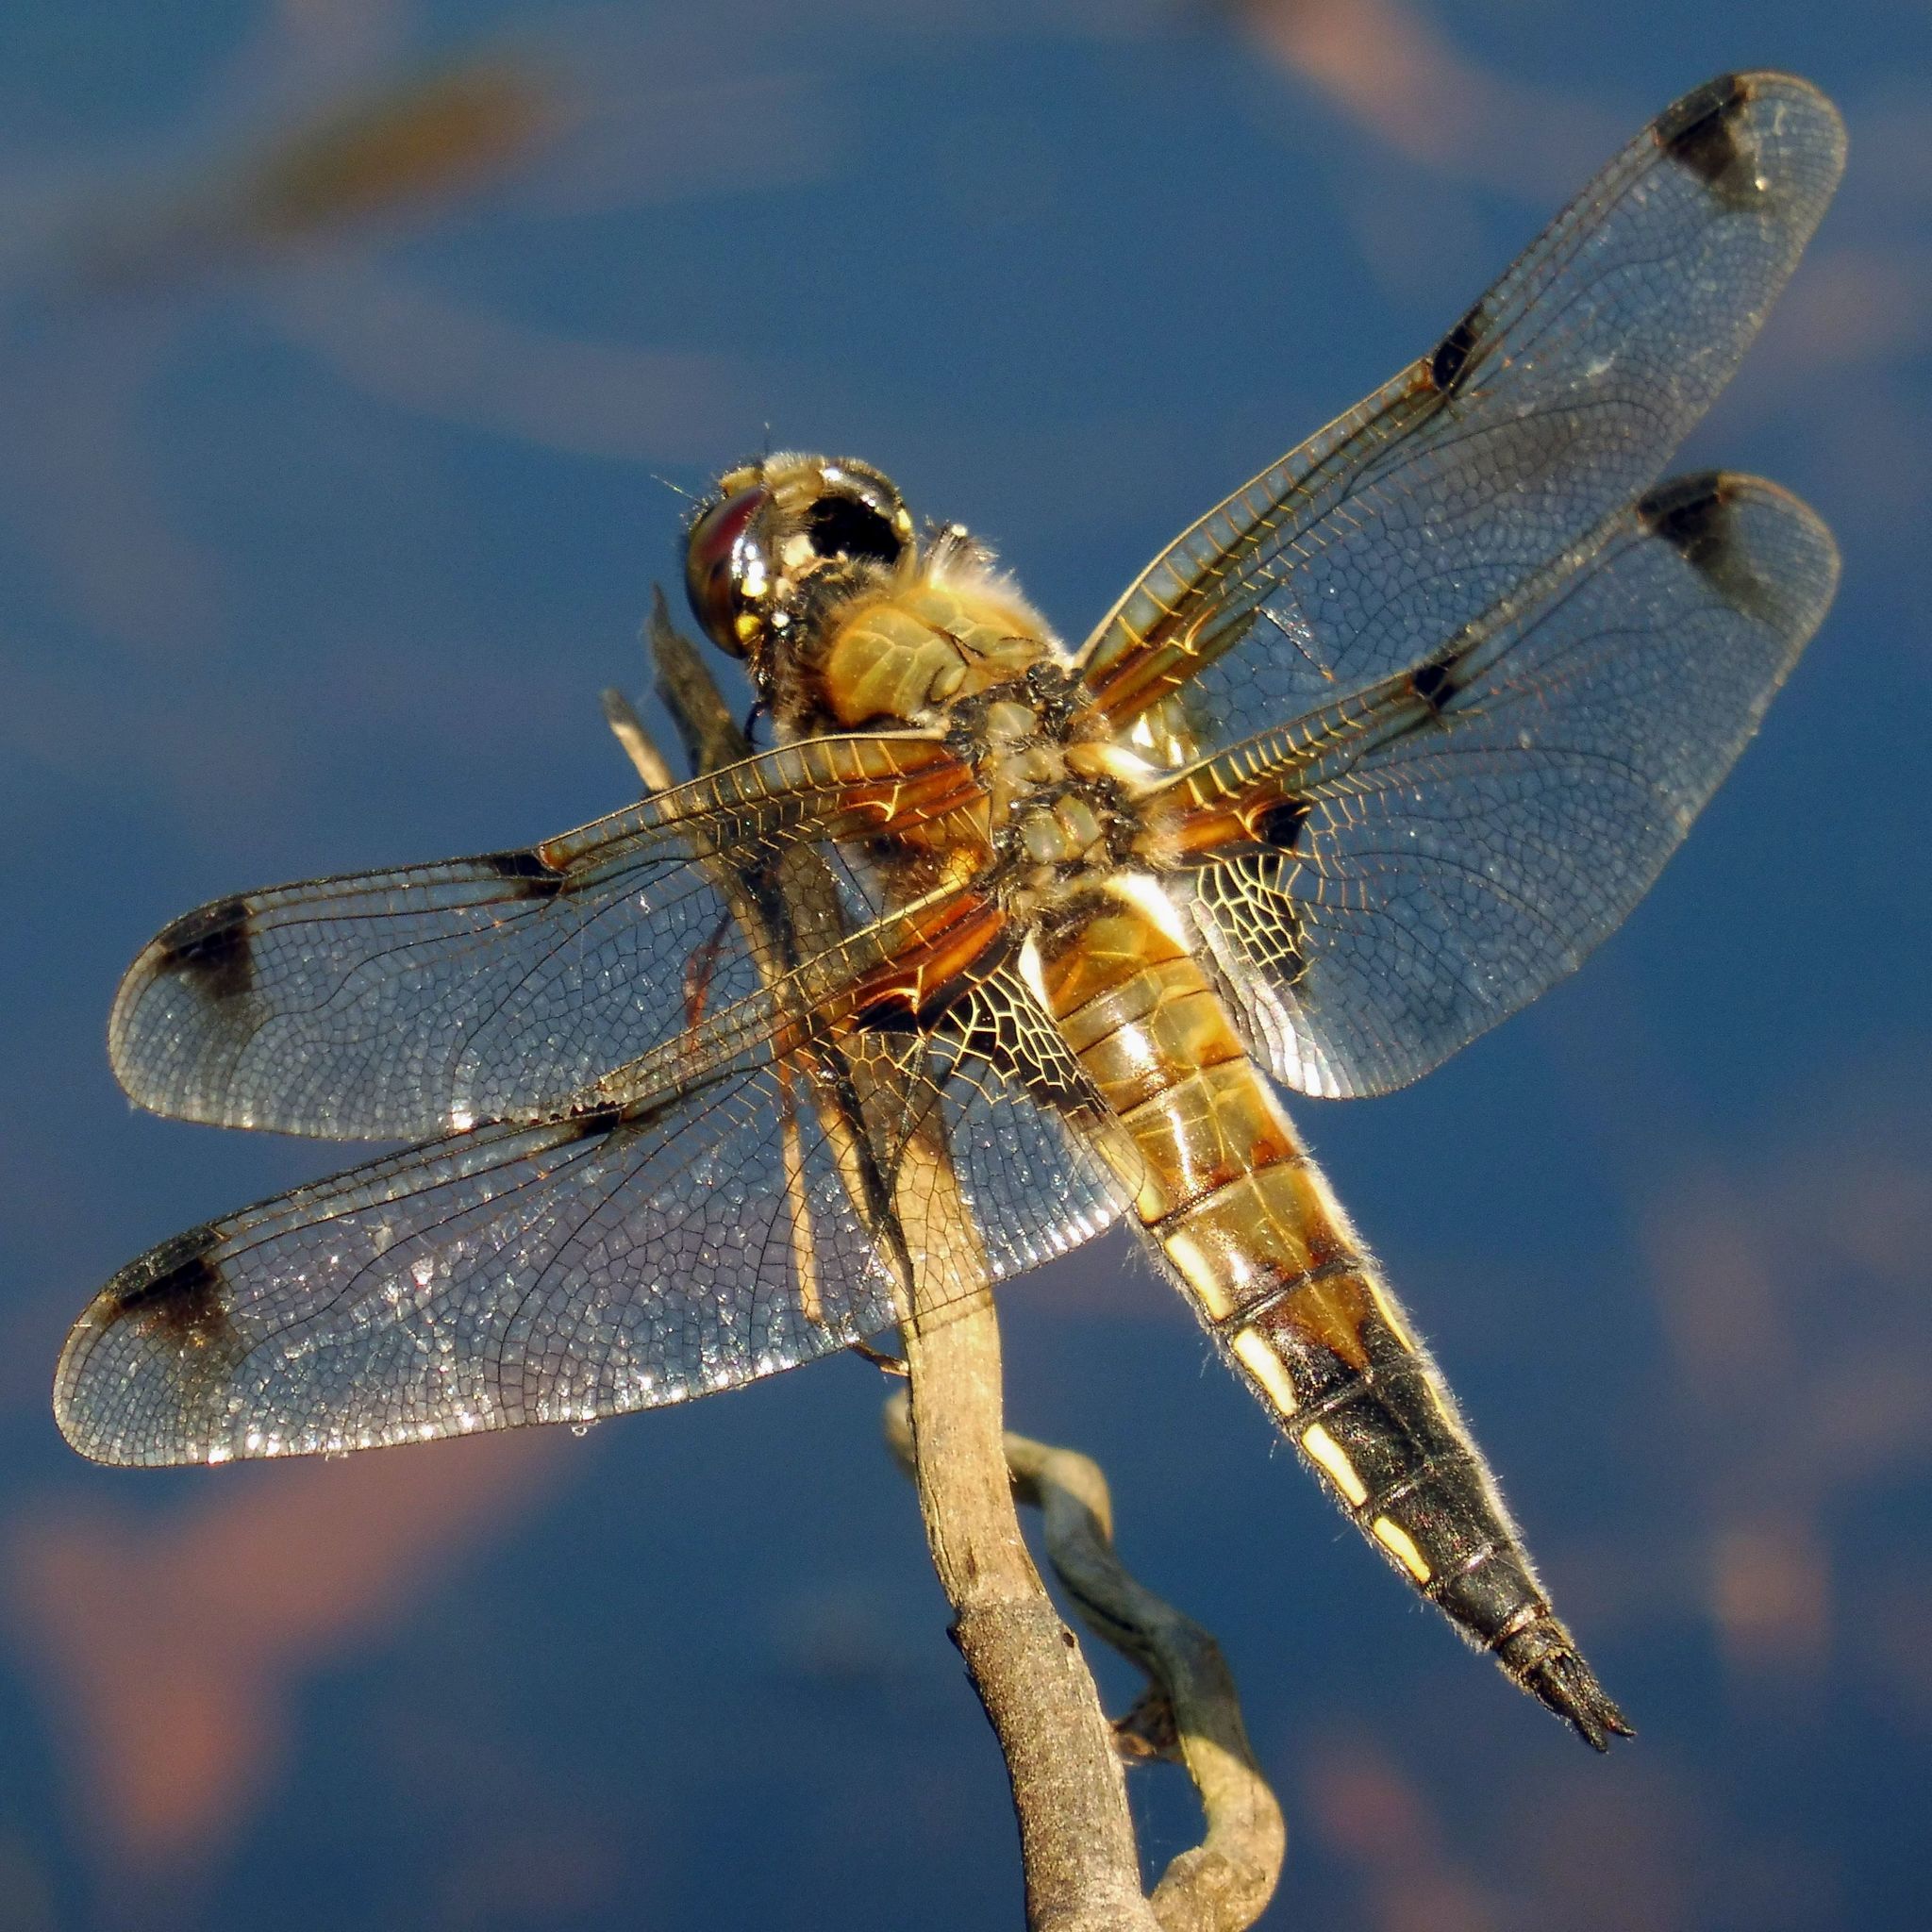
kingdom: Animalia
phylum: Arthropoda
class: Insecta
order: Odonata
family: Libellulidae
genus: Libellula
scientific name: Libellula quadrimaculata
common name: Four-spotted chaser
